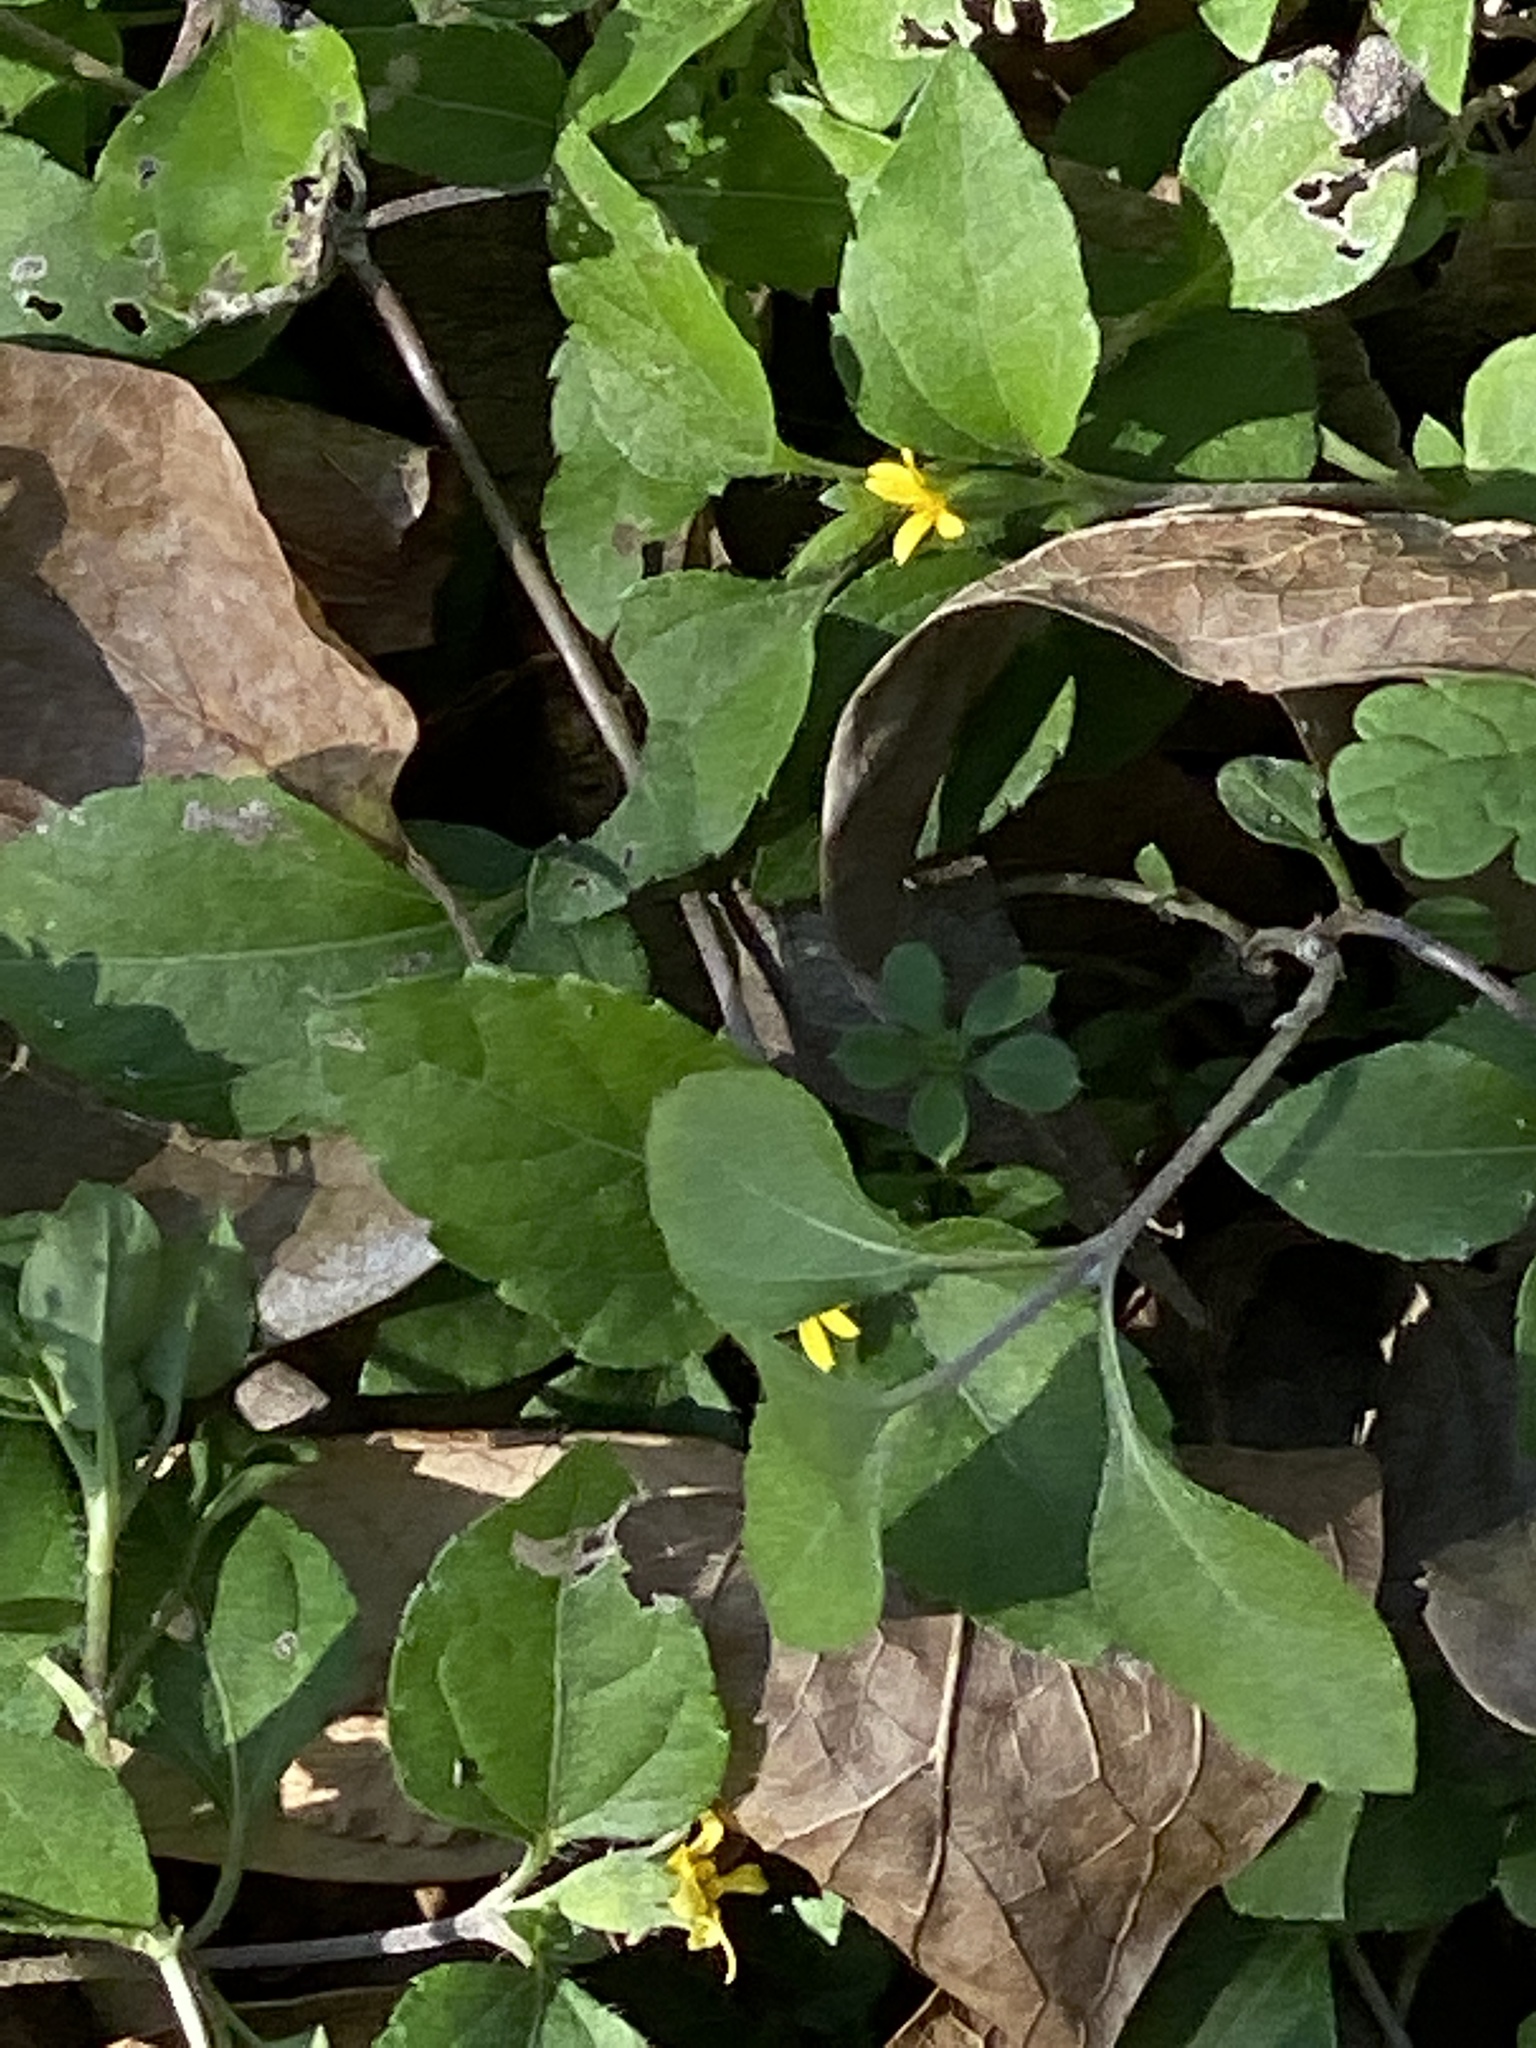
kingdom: Plantae
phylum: Tracheophyta
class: Magnoliopsida
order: Asterales
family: Asteraceae
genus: Calyptocarpus
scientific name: Calyptocarpus vialis
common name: Straggler daisy
